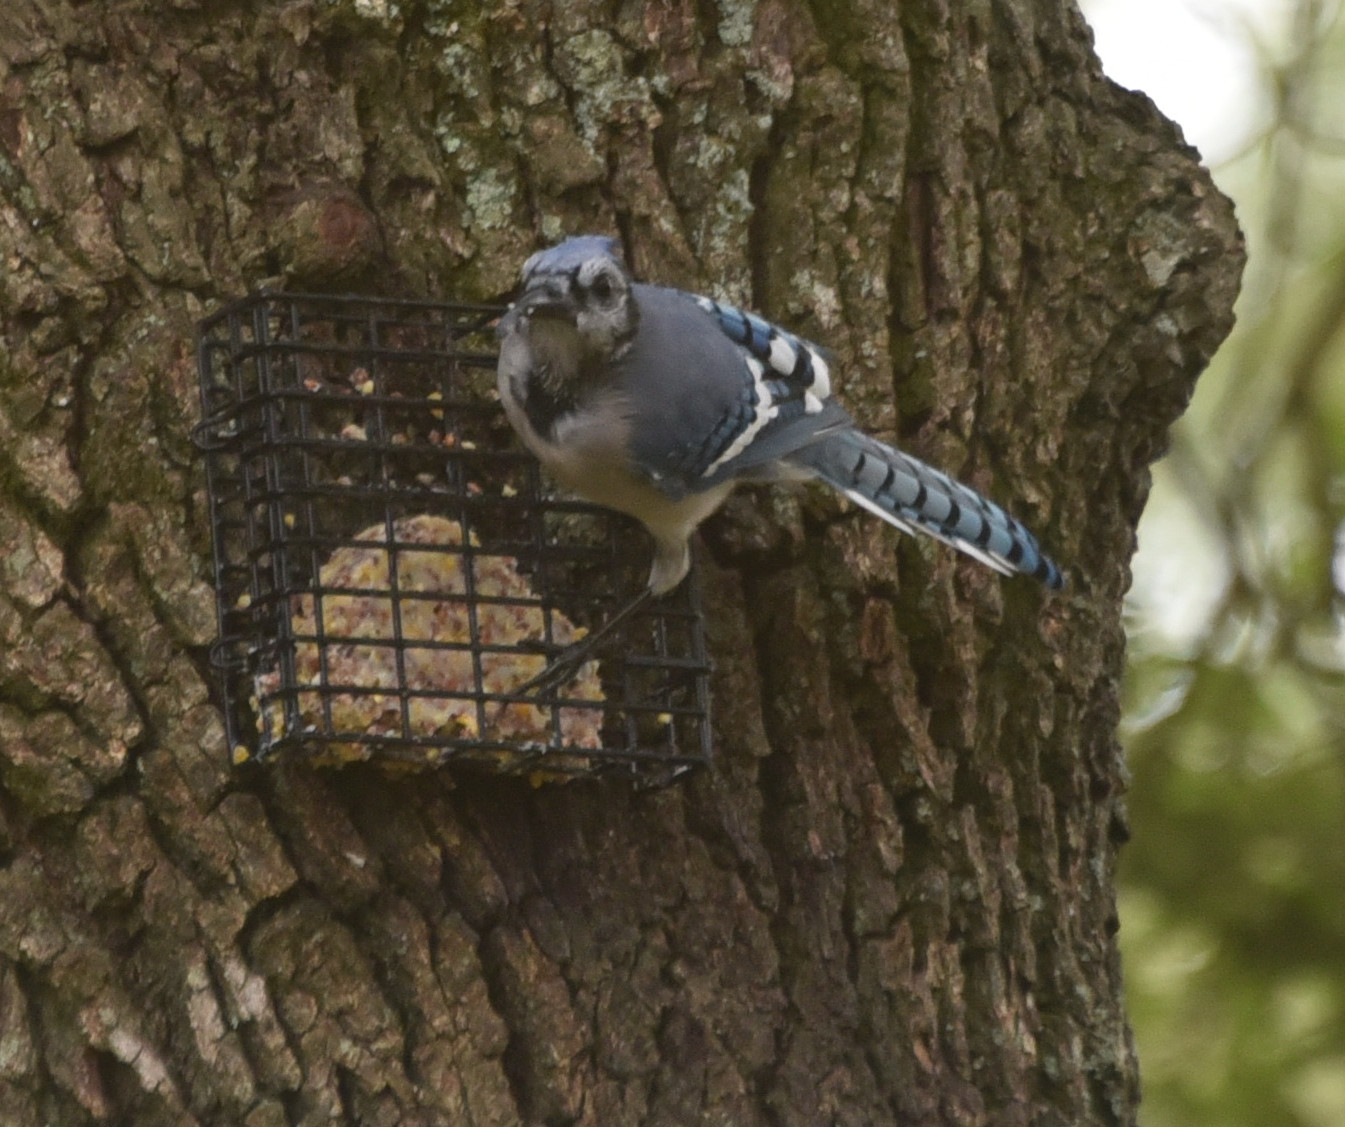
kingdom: Animalia
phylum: Chordata
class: Aves
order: Passeriformes
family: Corvidae
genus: Cyanocitta
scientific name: Cyanocitta cristata
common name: Blue jay
